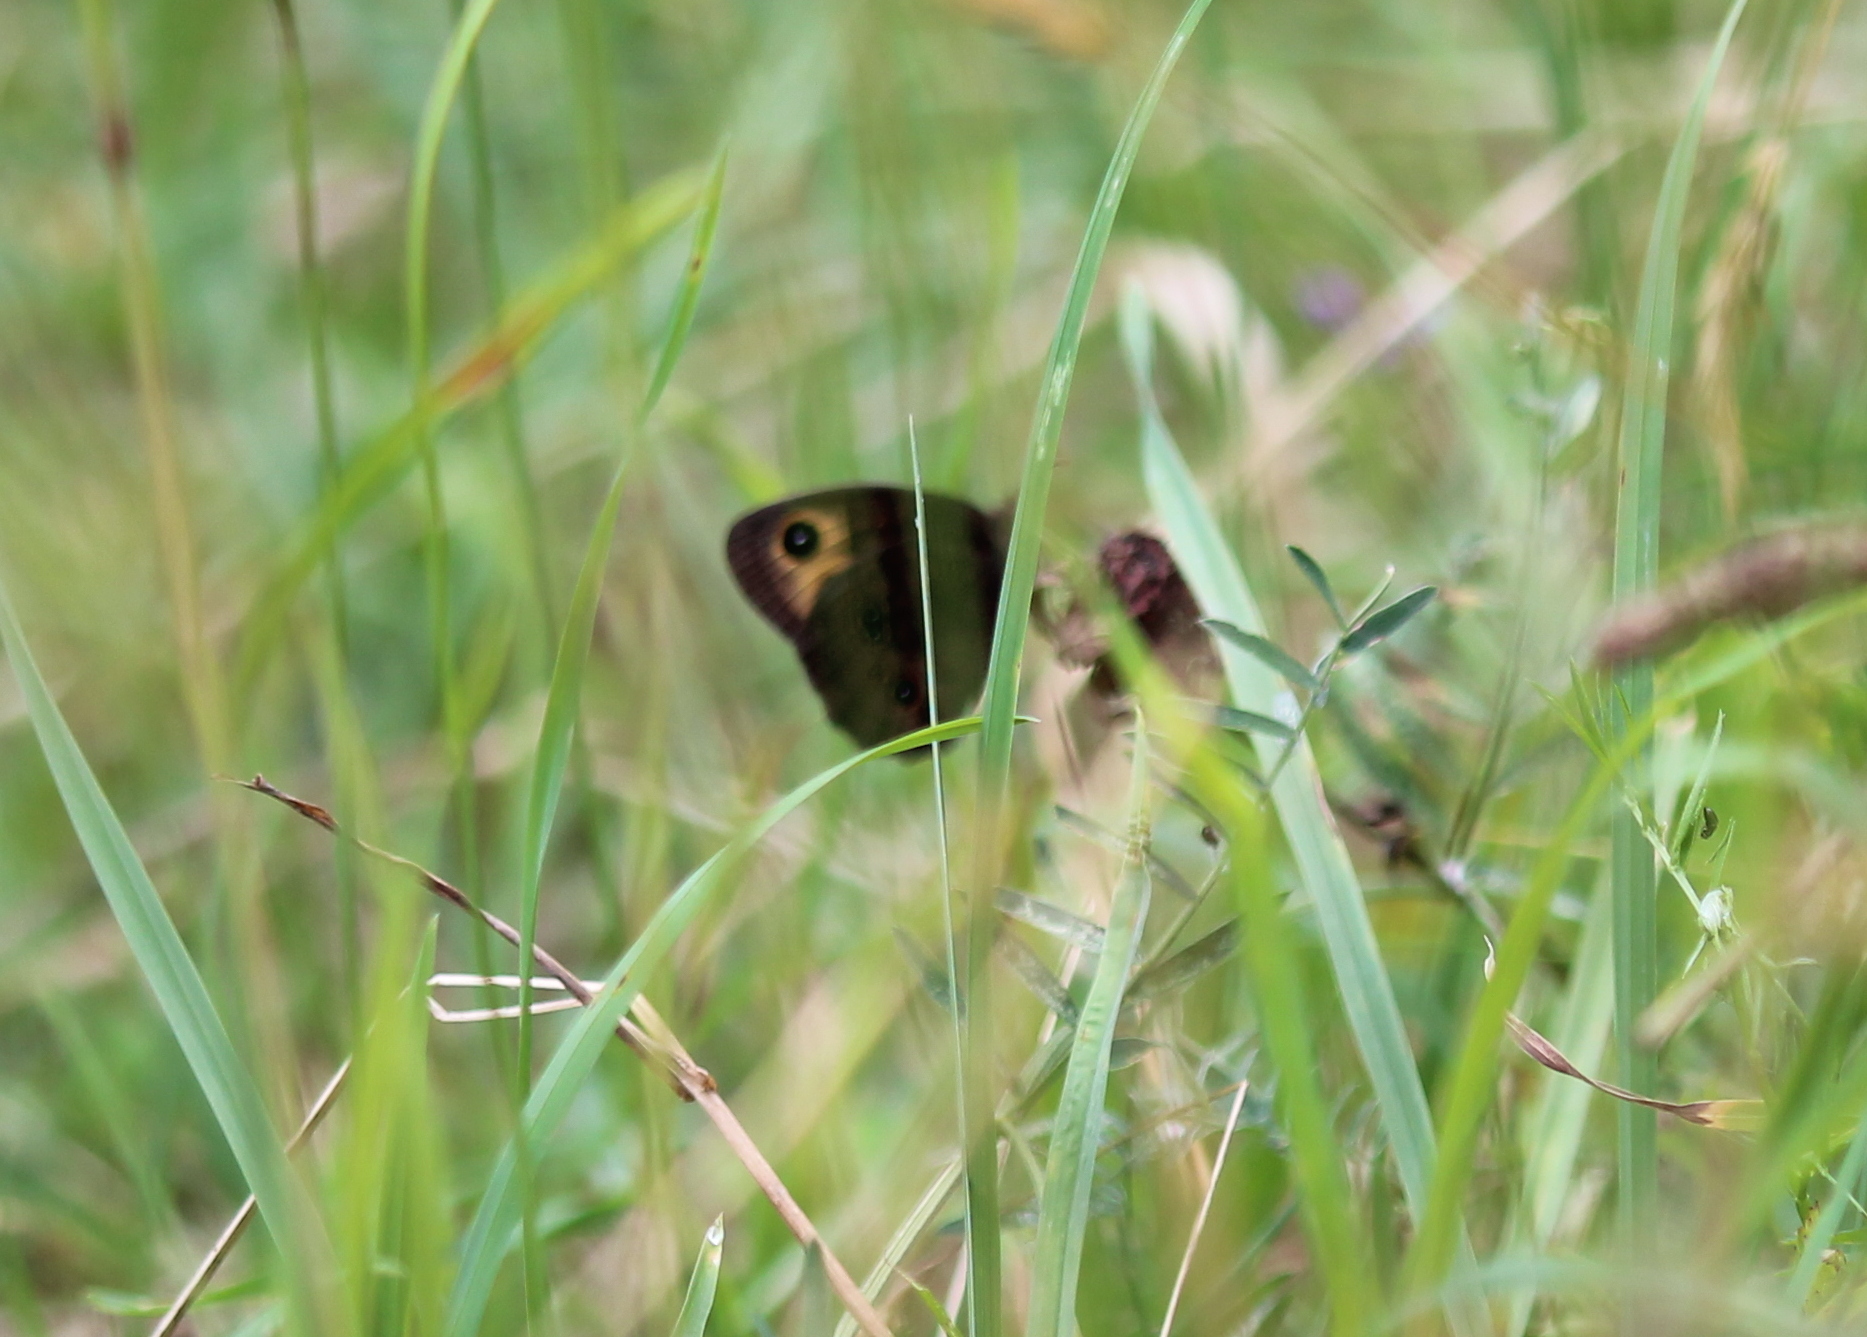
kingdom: Animalia
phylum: Arthropoda
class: Insecta
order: Lepidoptera
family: Nymphalidae
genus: Cercyonis
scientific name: Cercyonis pegala
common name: Common wood-nymph
